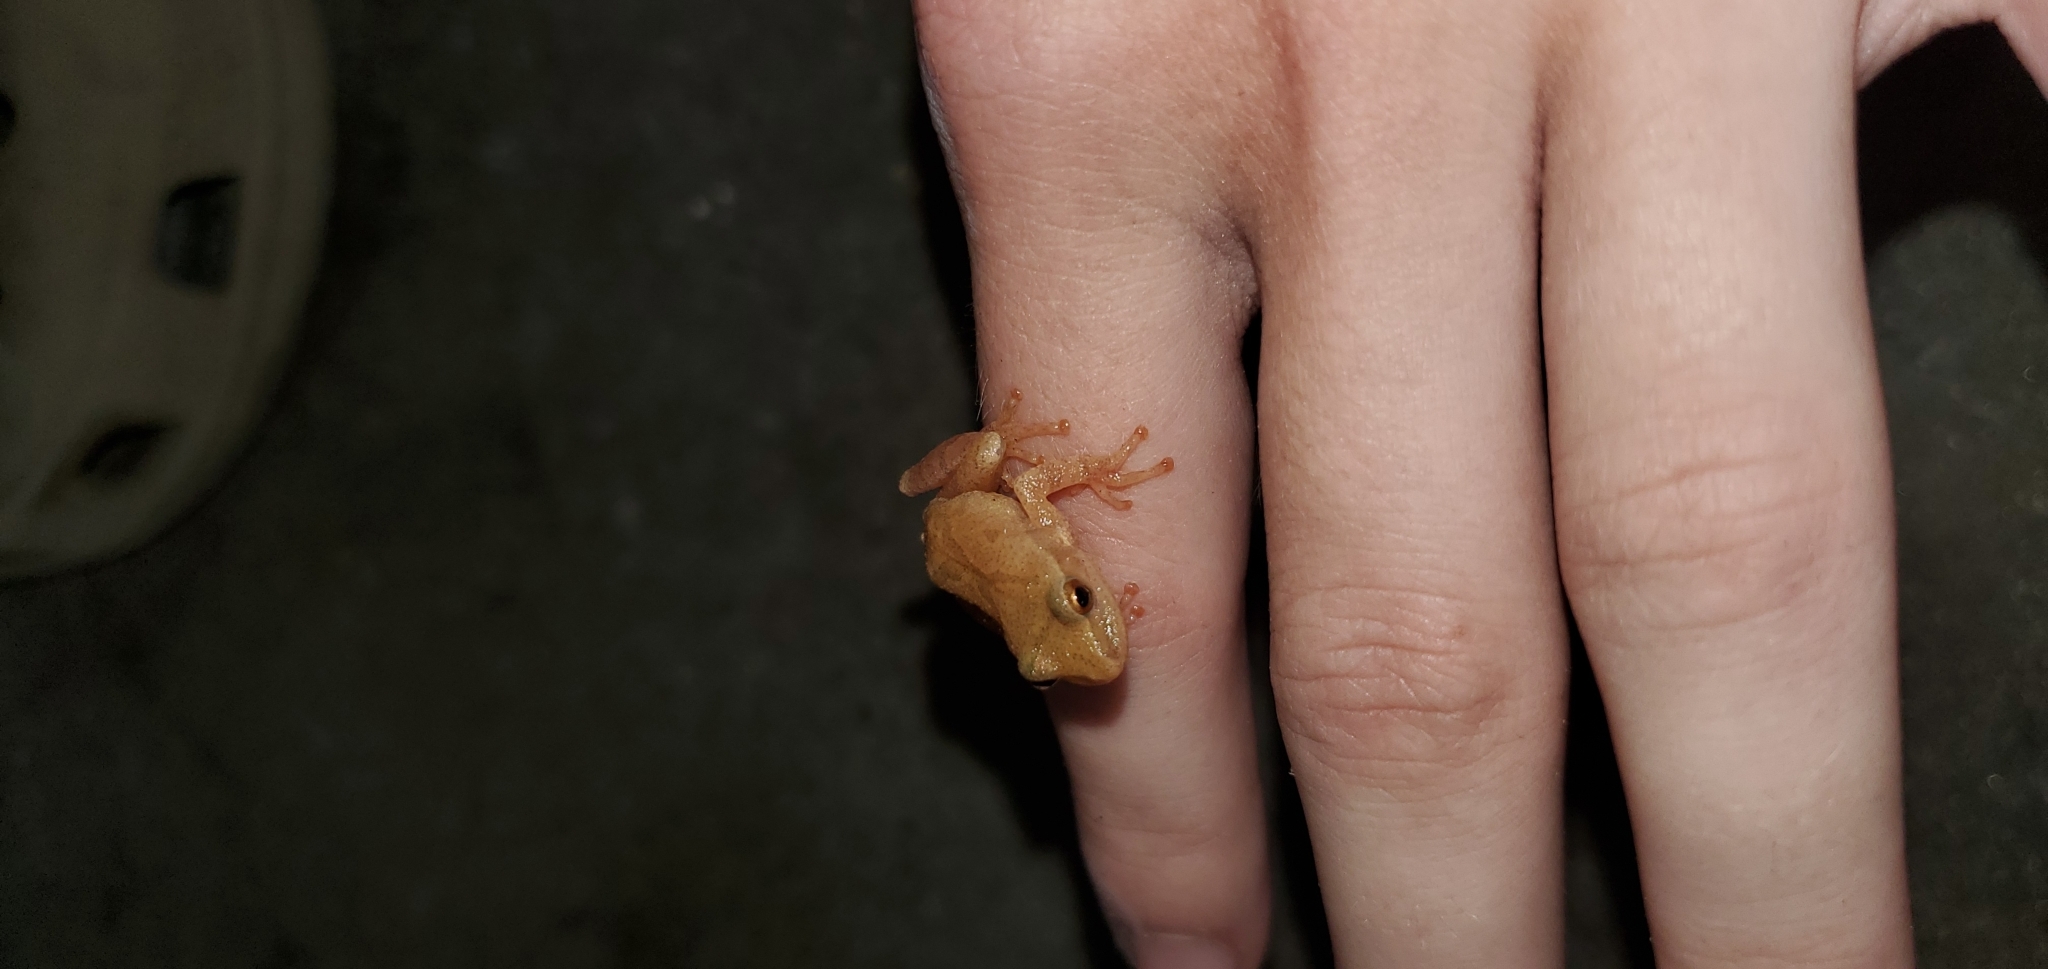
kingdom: Animalia
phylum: Chordata
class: Amphibia
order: Anura
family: Hylidae
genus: Pseudacris
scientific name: Pseudacris crucifer
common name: Spring peeper
